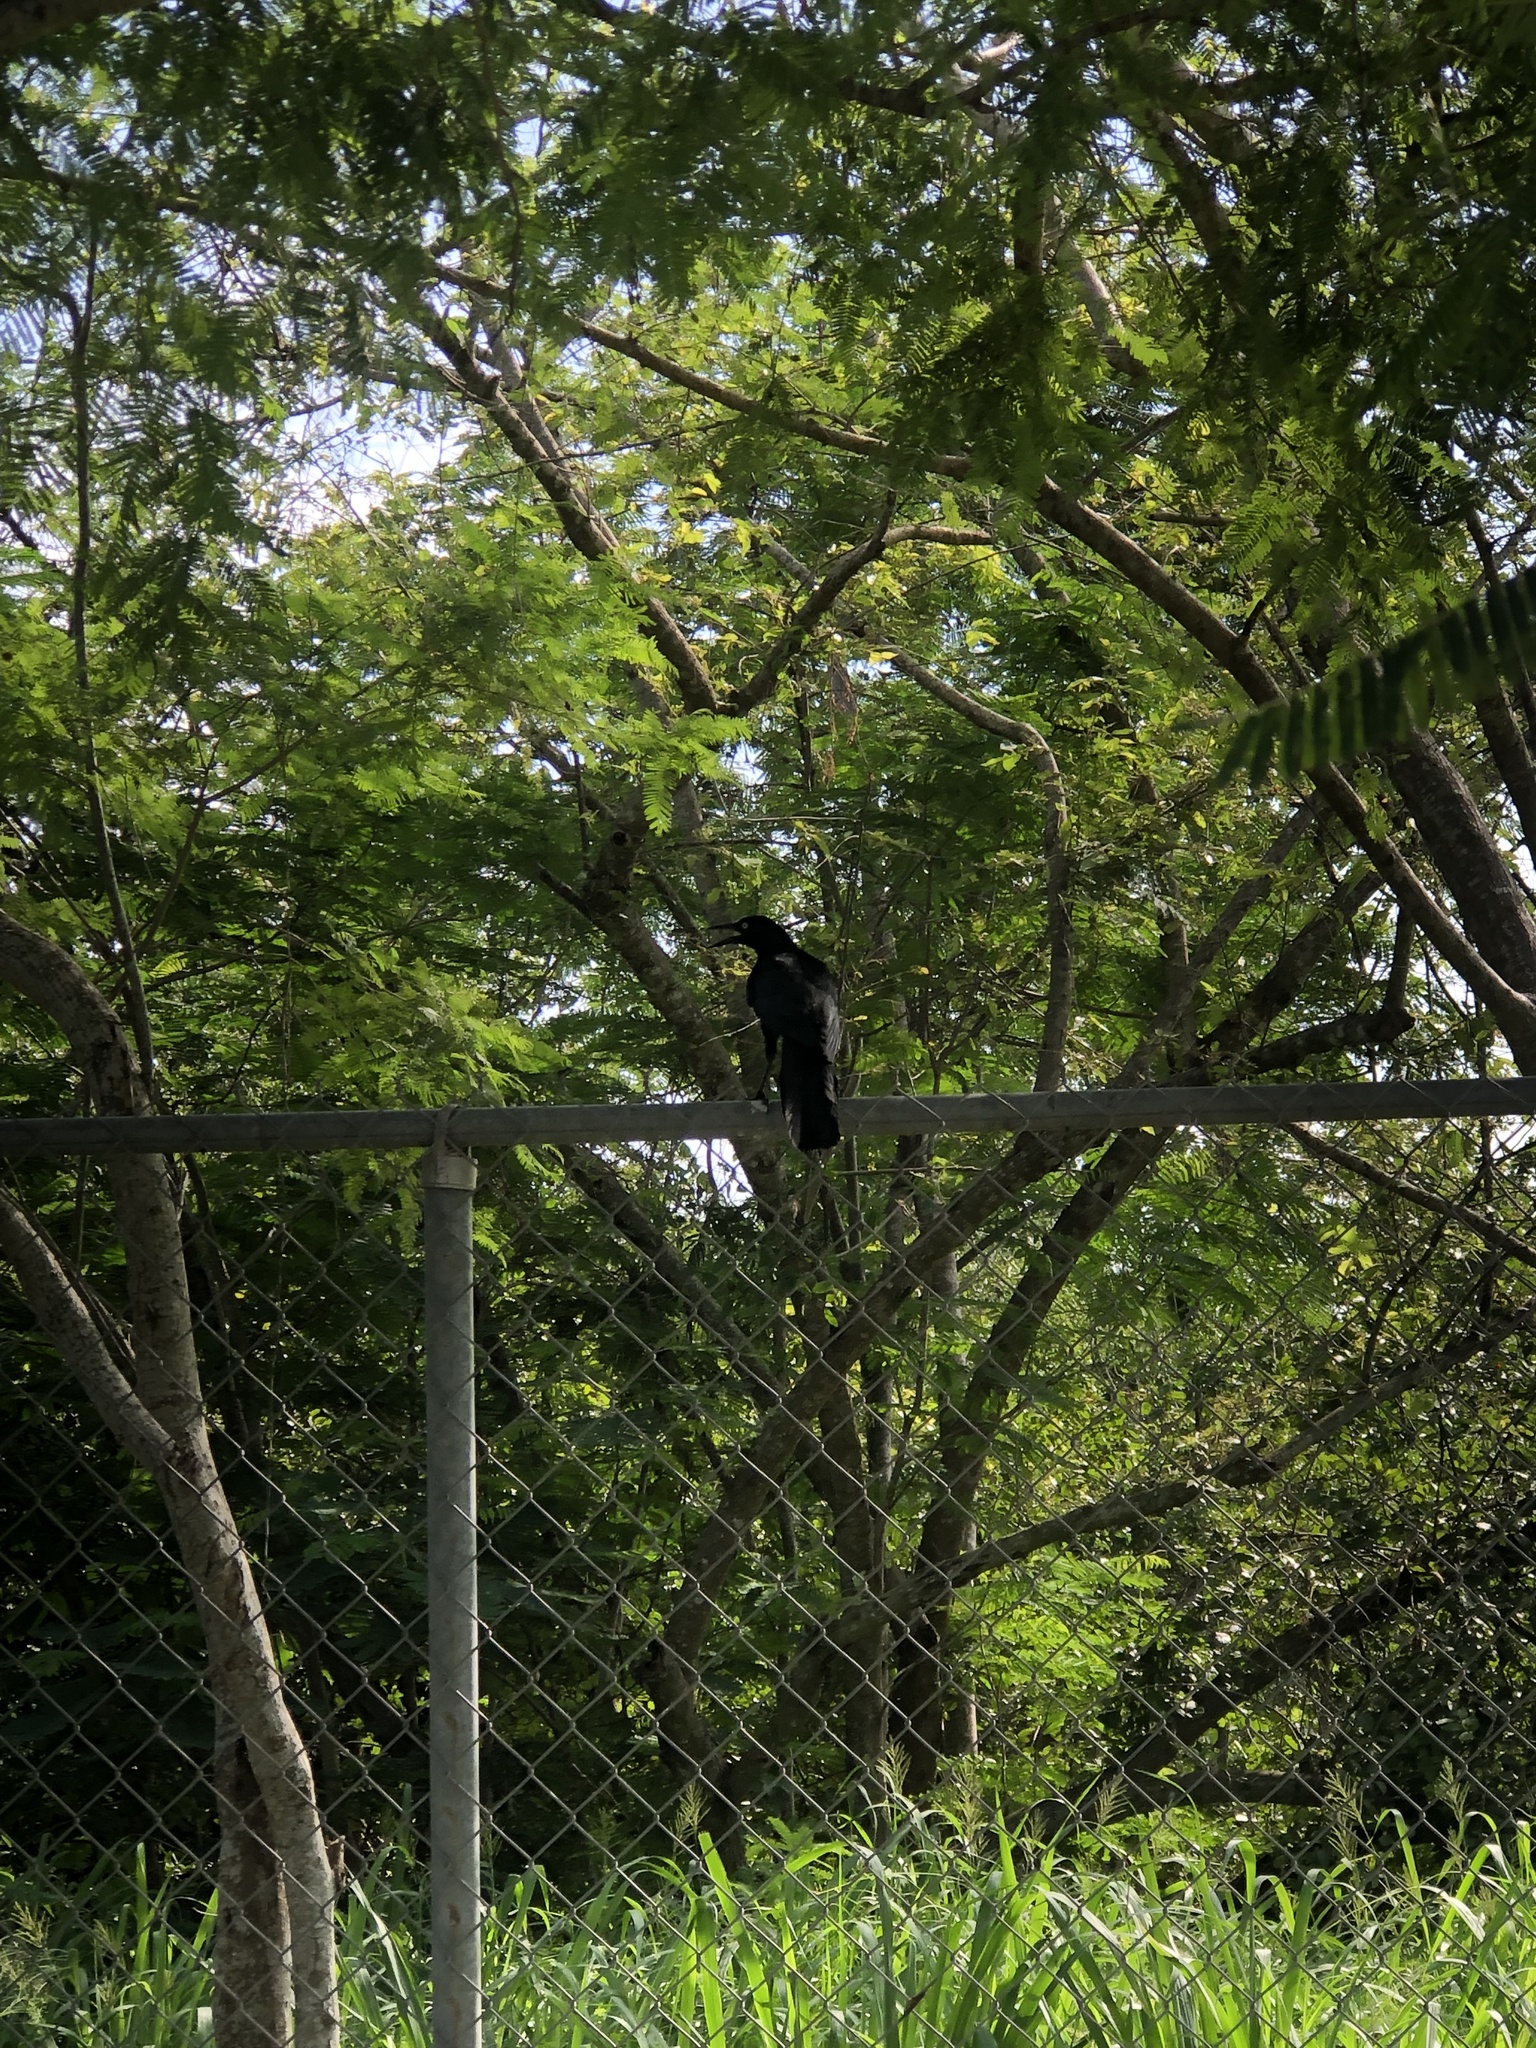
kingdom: Animalia
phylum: Chordata
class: Aves
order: Passeriformes
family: Icteridae
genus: Quiscalus
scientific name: Quiscalus mexicanus
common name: Great-tailed grackle
